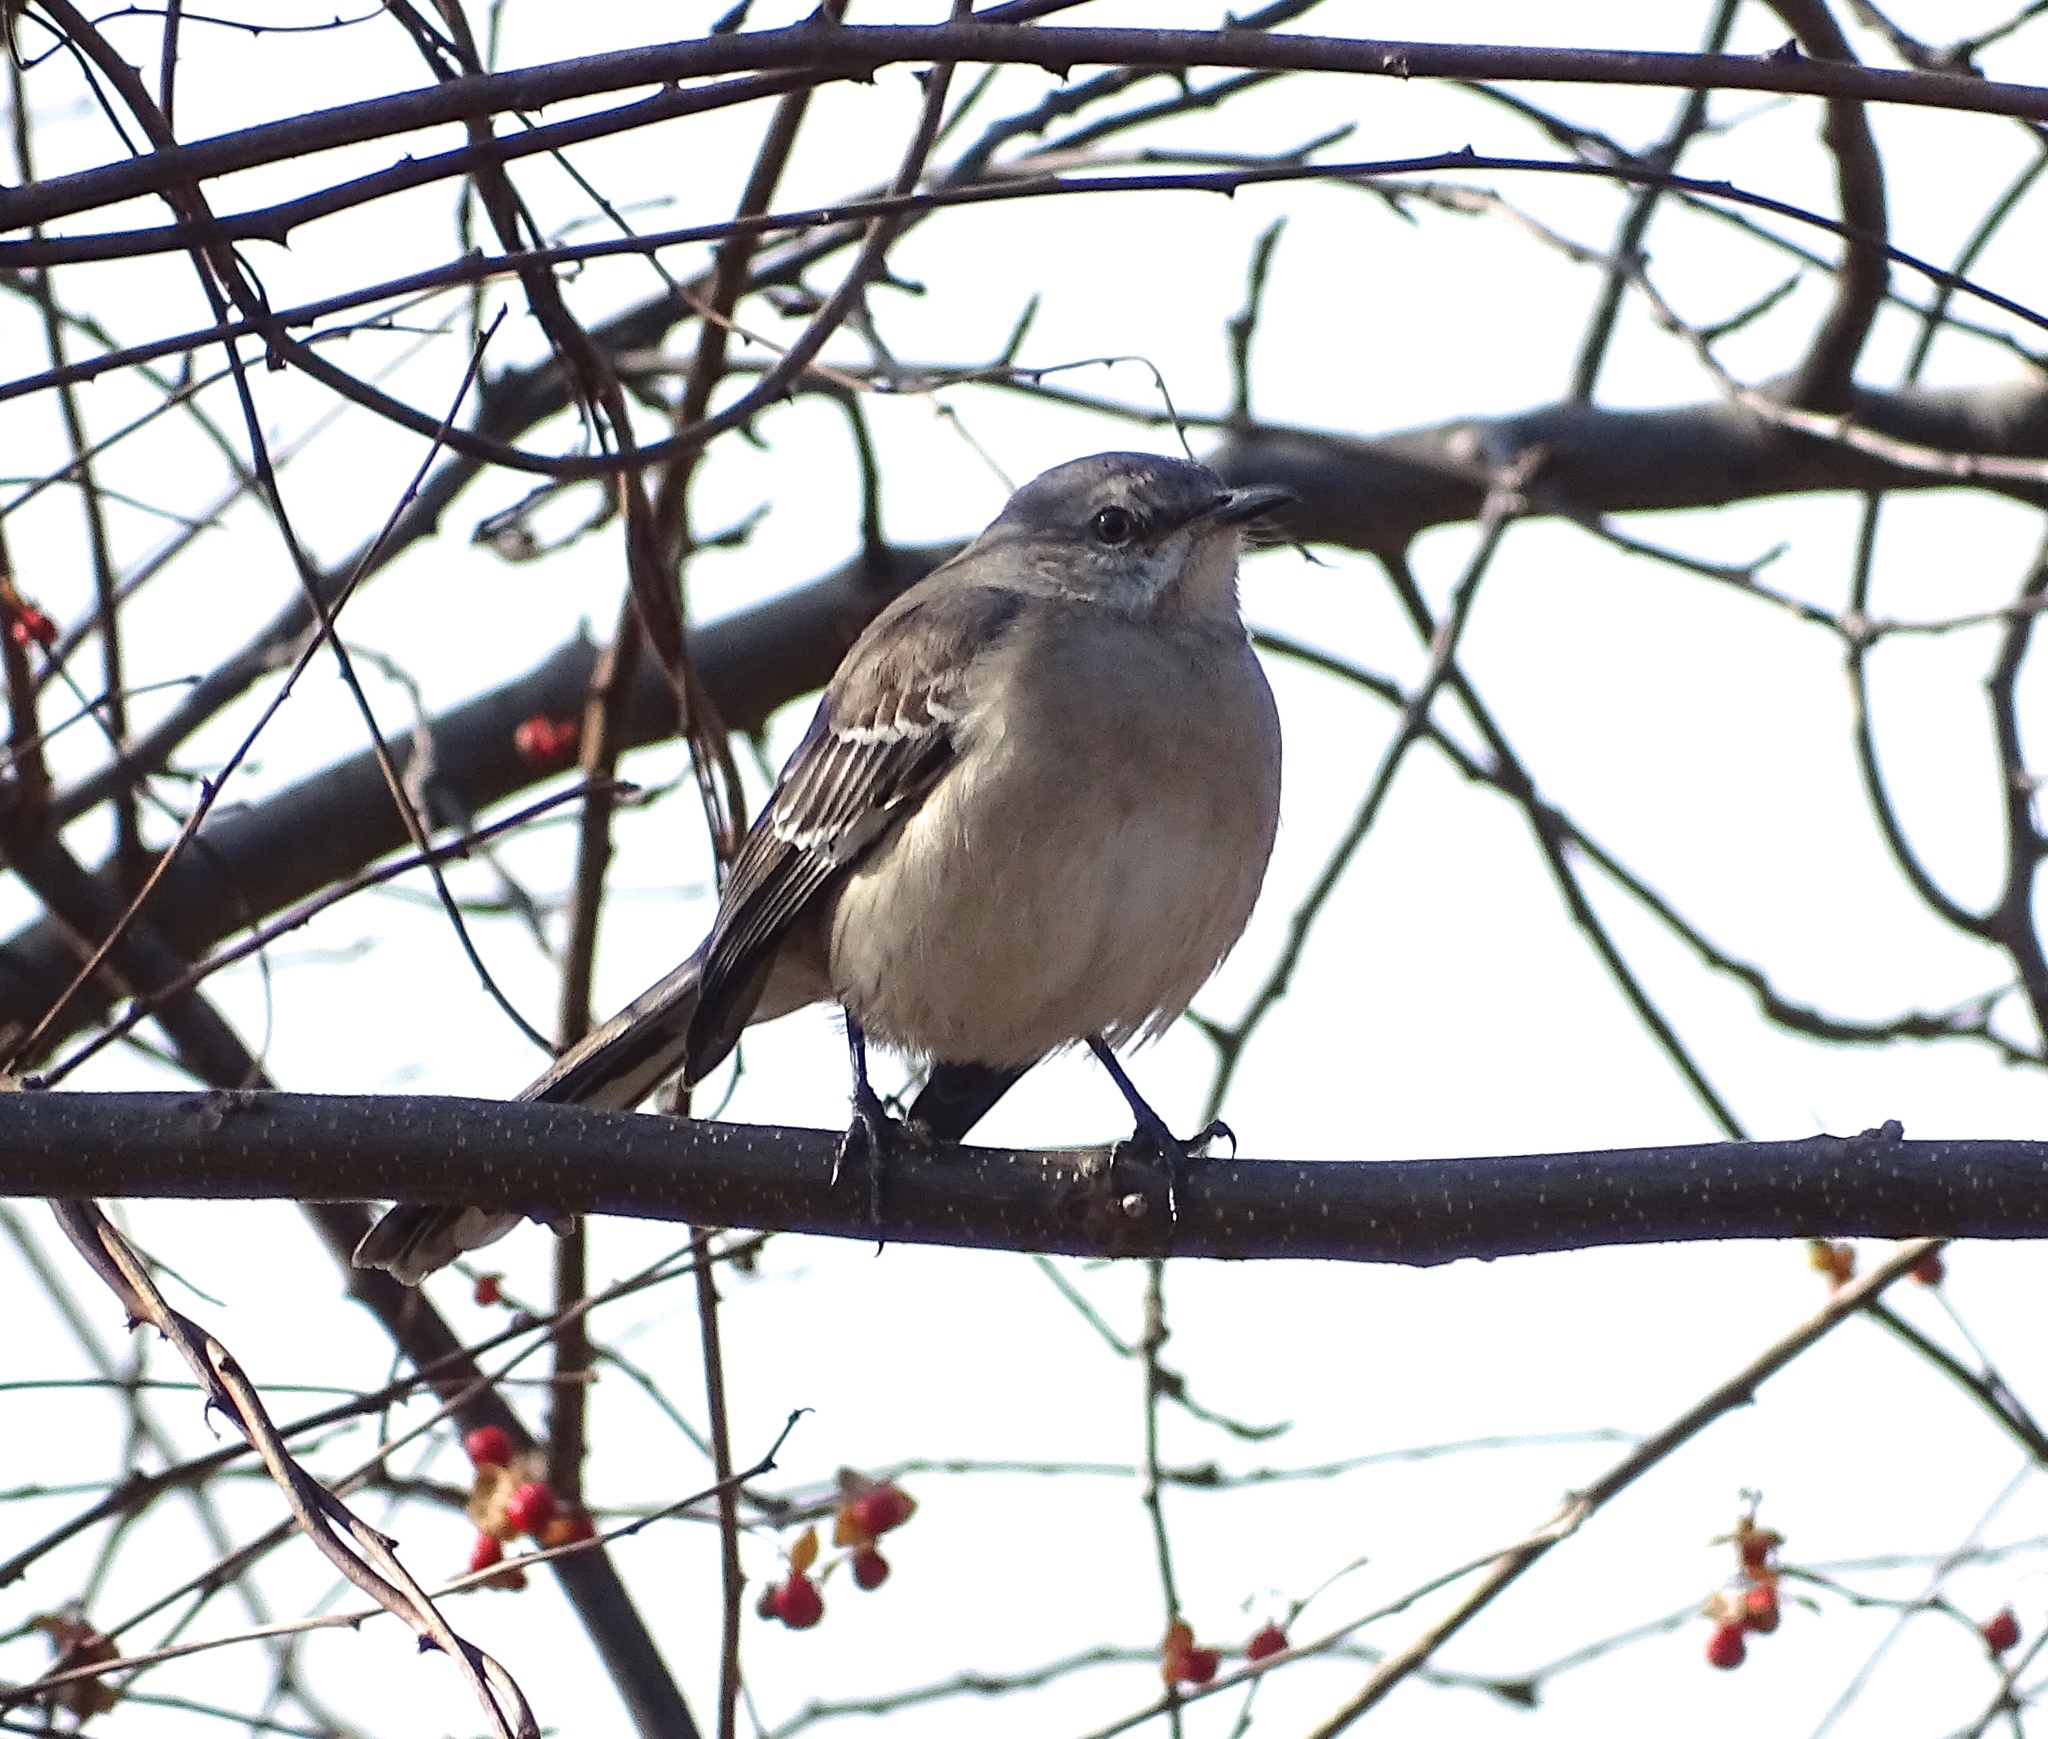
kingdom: Animalia
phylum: Chordata
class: Aves
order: Passeriformes
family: Mimidae
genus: Mimus
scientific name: Mimus polyglottos
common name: Northern mockingbird
